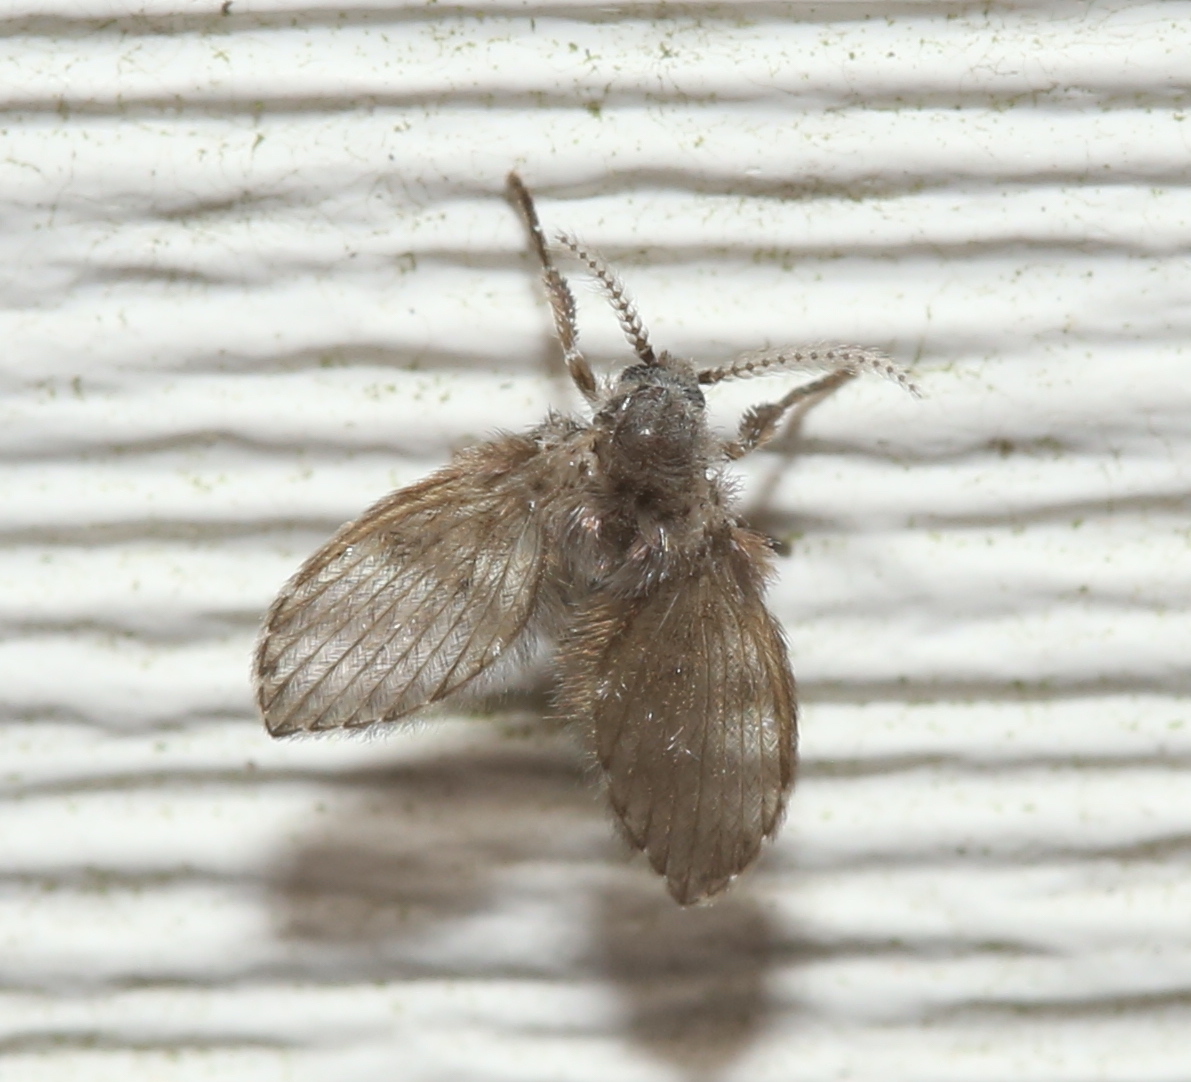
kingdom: Animalia
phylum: Arthropoda
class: Insecta
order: Diptera
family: Psychodidae
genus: Clogmia
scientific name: Clogmia albipunctatus
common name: White-spotted moth fly
